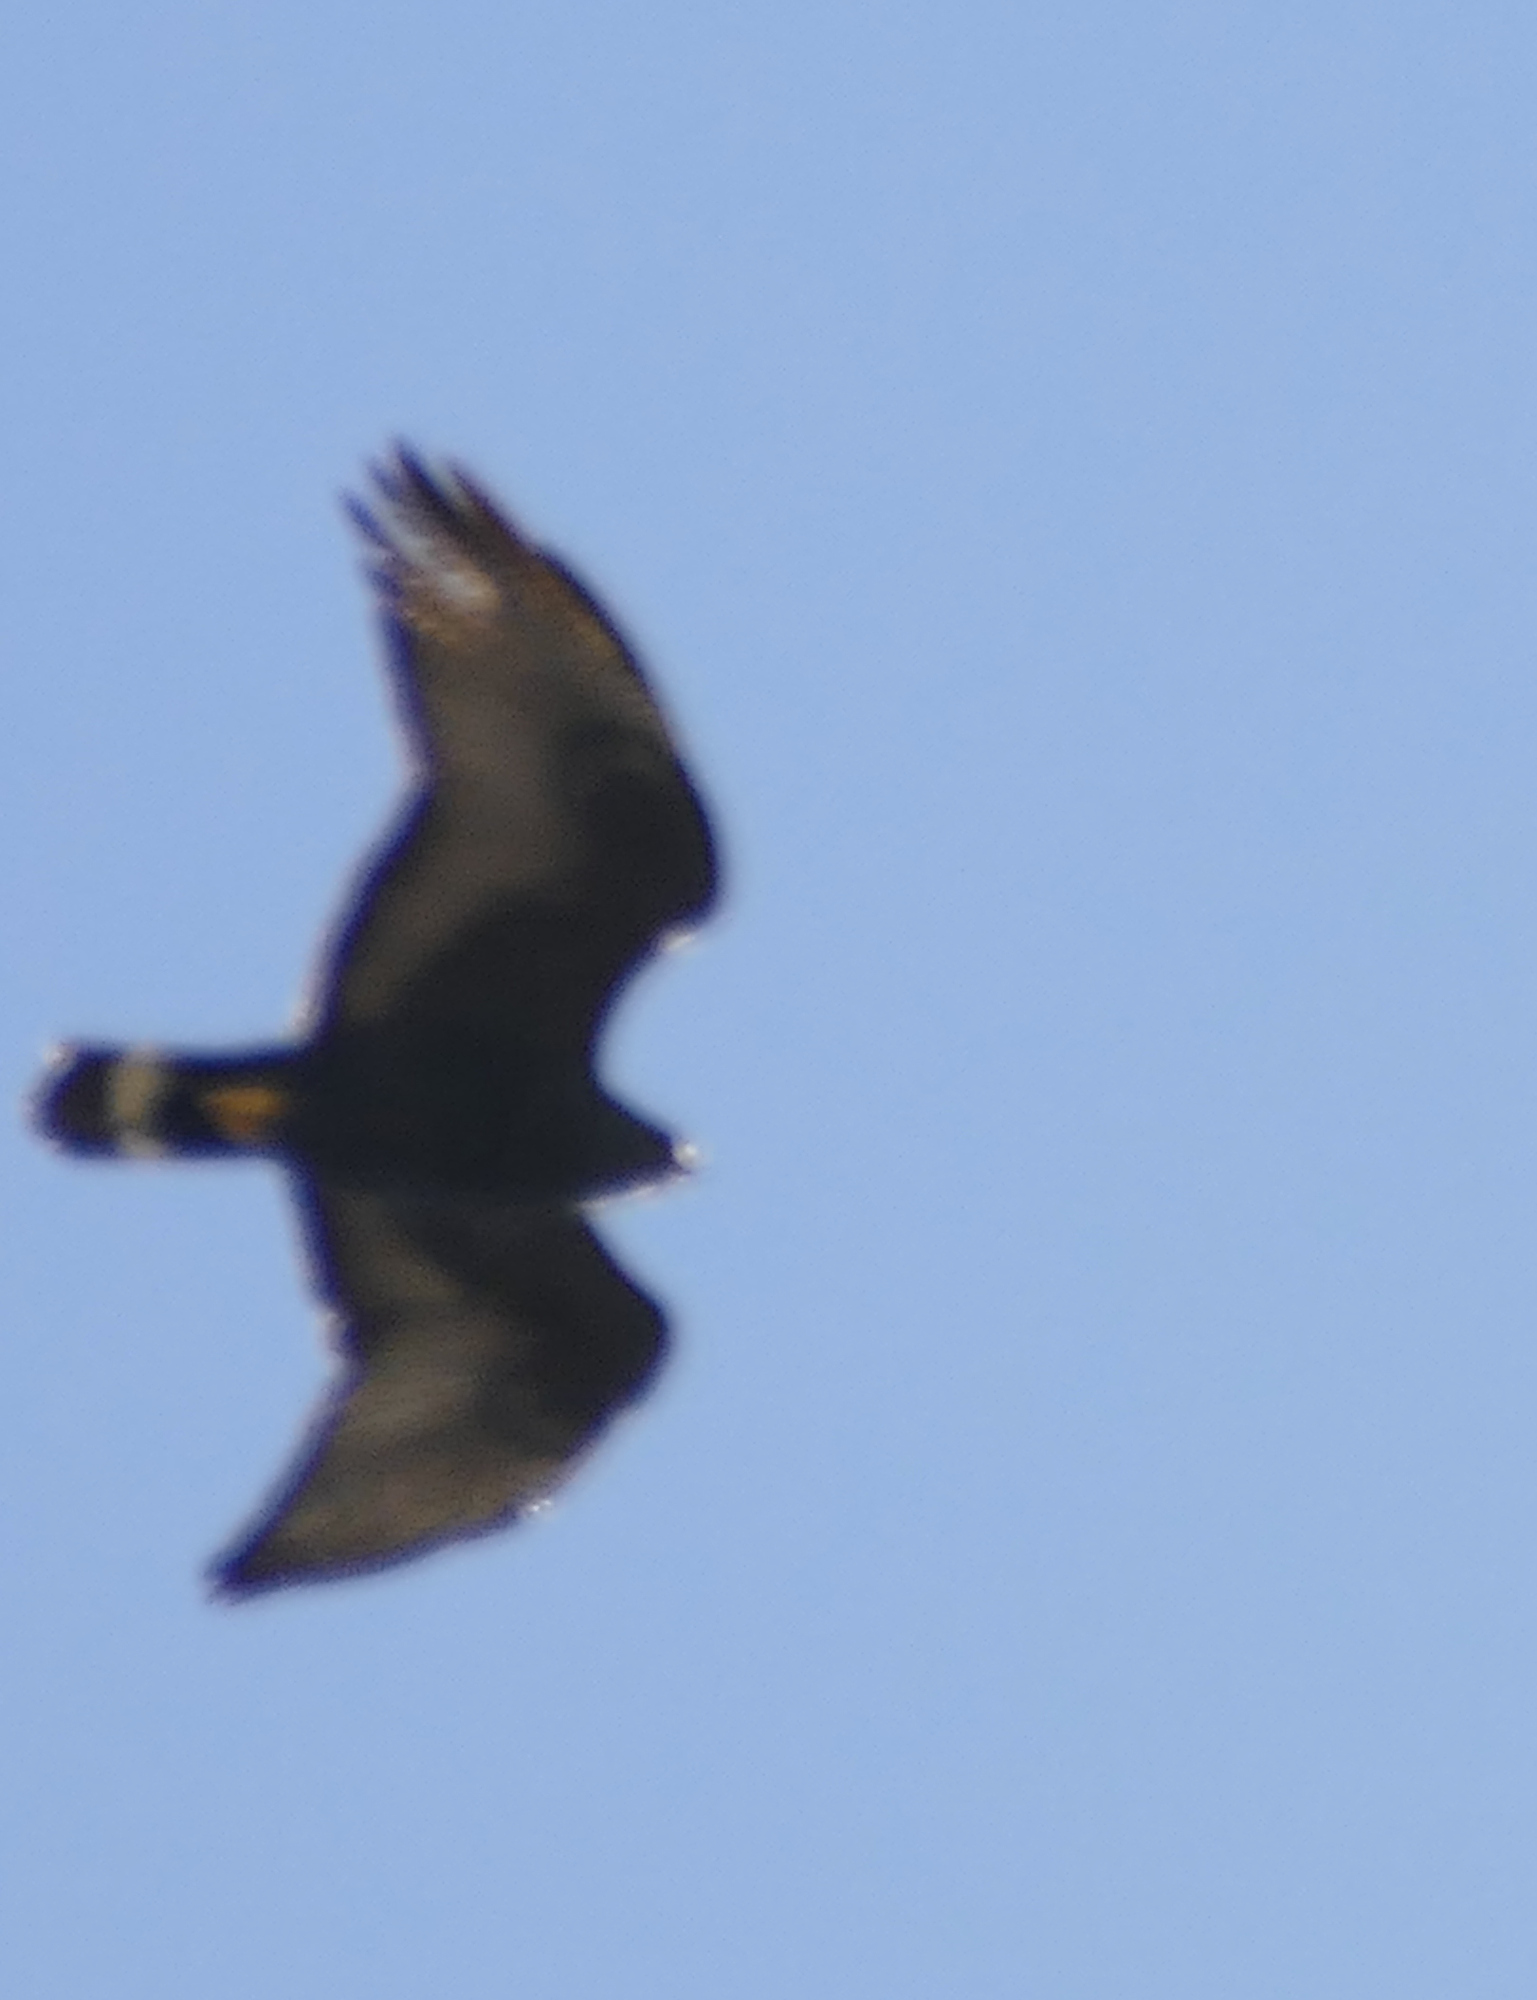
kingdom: Animalia
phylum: Chordata
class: Aves
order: Accipitriformes
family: Accipitridae
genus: Buteo
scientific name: Buteo albonotatus
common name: Zone-tailed hawk
